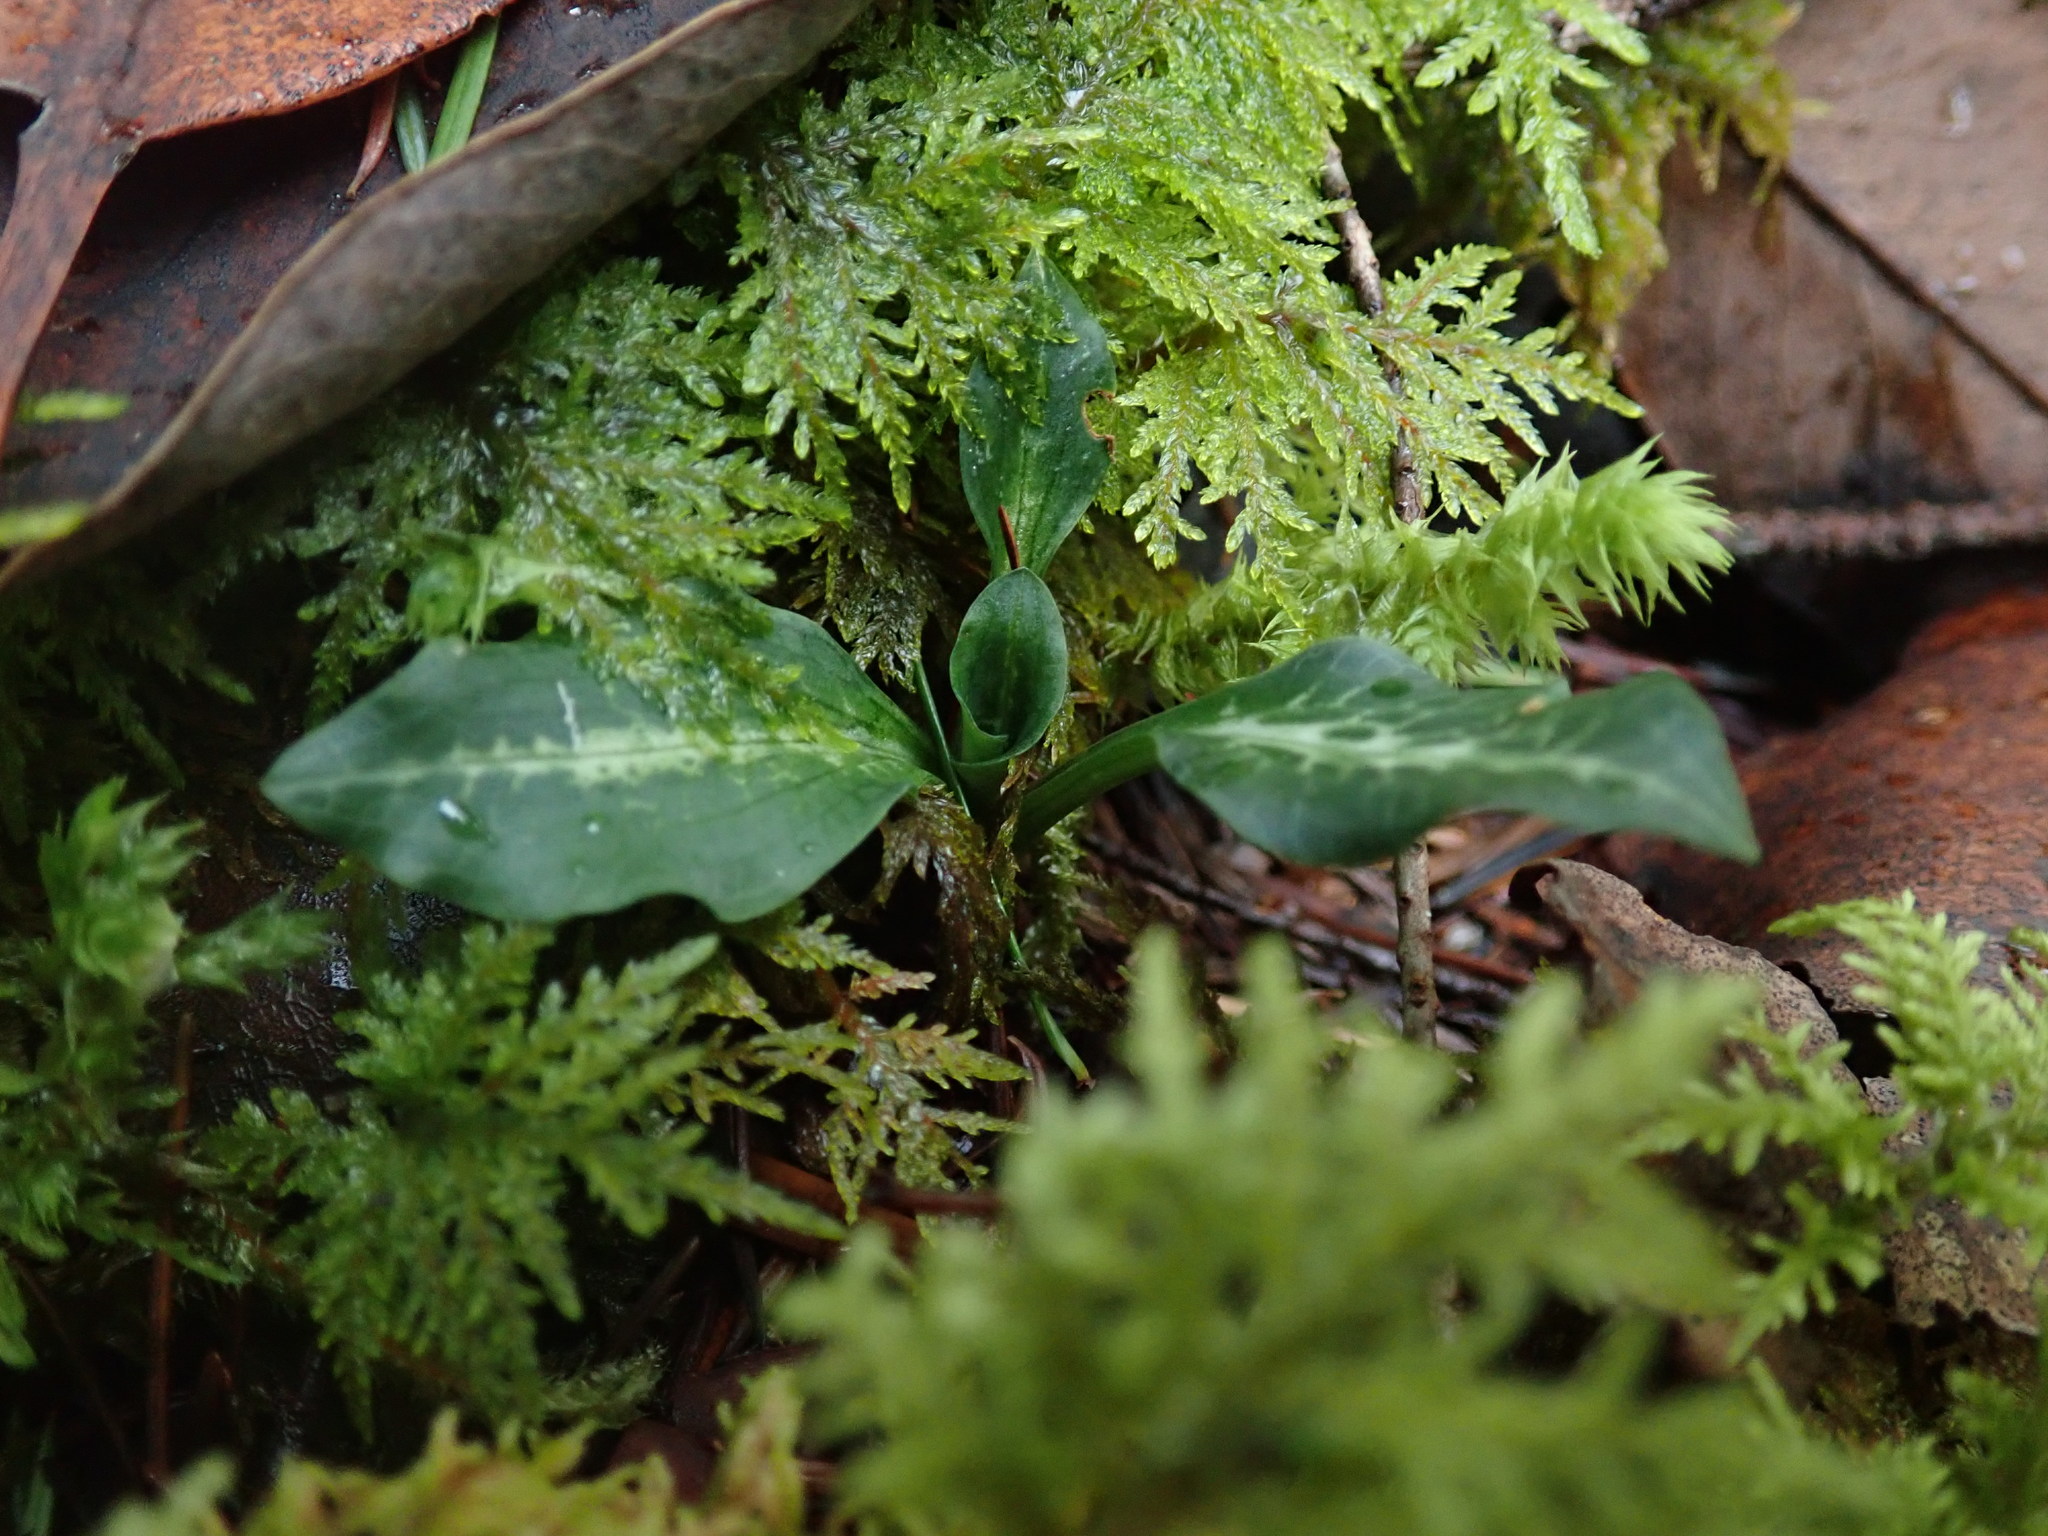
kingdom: Plantae
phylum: Tracheophyta
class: Liliopsida
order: Asparagales
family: Orchidaceae
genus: Goodyera
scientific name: Goodyera oblongifolia
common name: Giant rattlesnake-plantain
